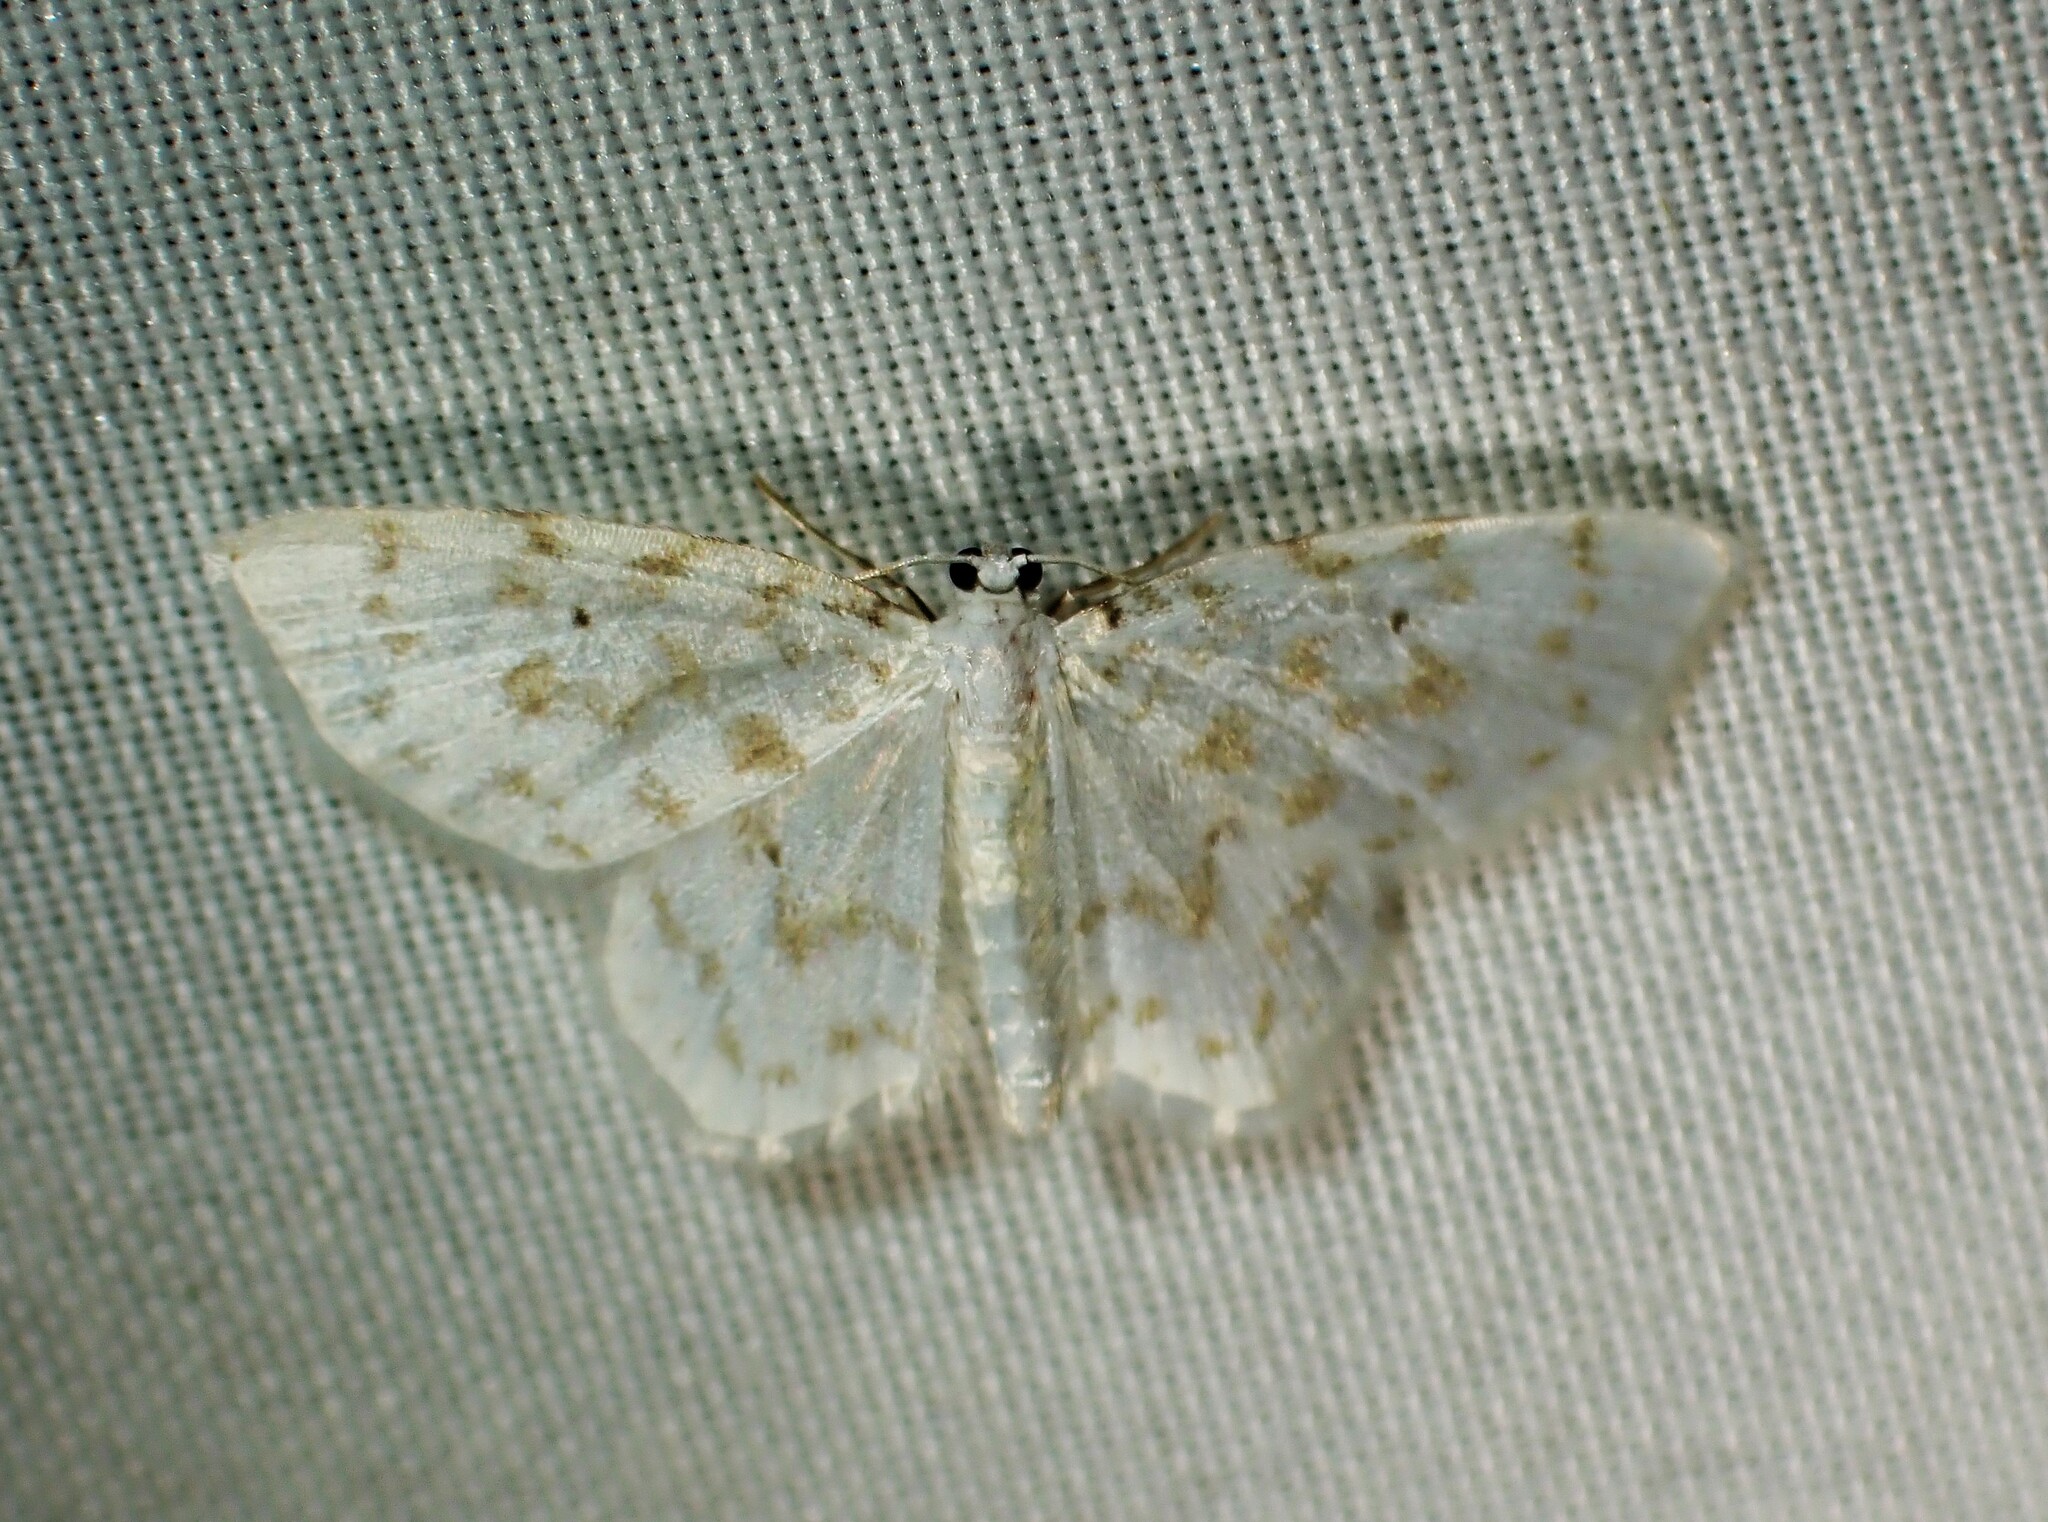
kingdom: Animalia
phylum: Arthropoda
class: Insecta
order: Lepidoptera
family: Geometridae
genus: Hydrelia
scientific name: Hydrelia albifera
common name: Fragile white carpet
